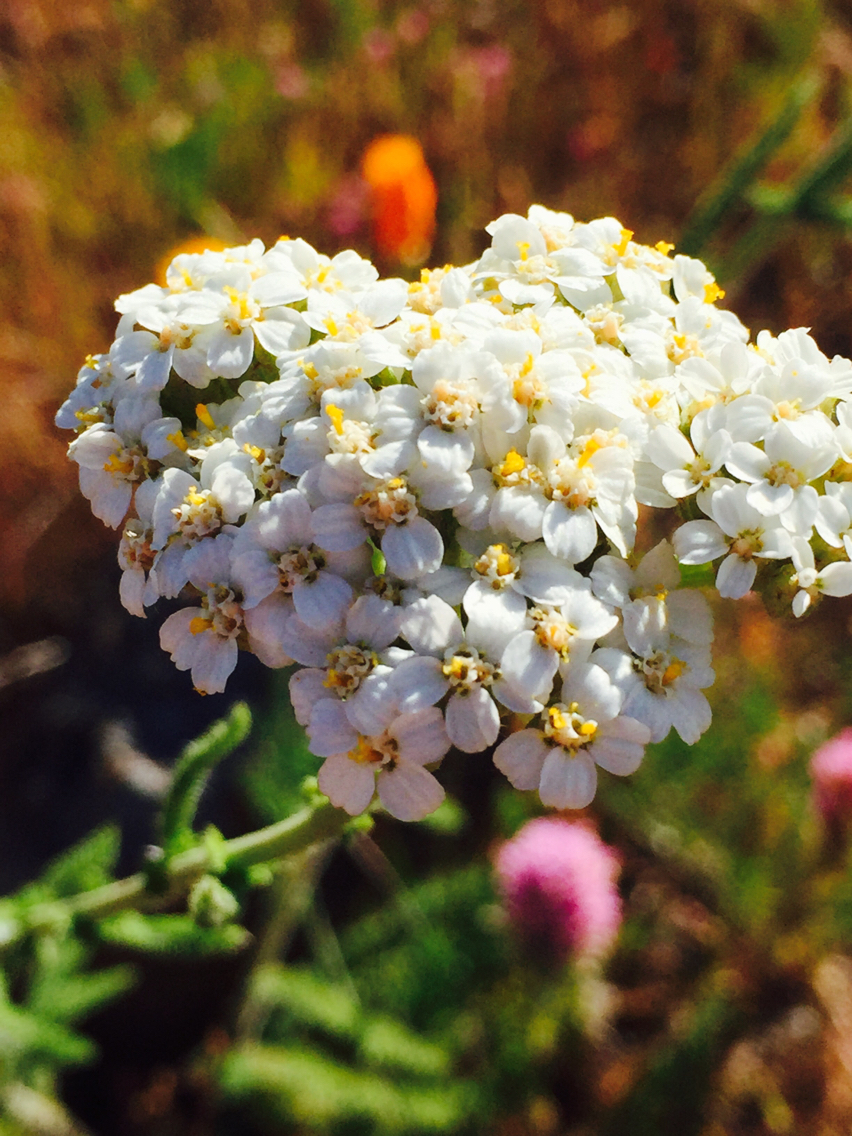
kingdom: Plantae
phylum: Tracheophyta
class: Magnoliopsida
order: Asterales
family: Asteraceae
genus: Achillea
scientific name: Achillea millefolium
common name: Yarrow
